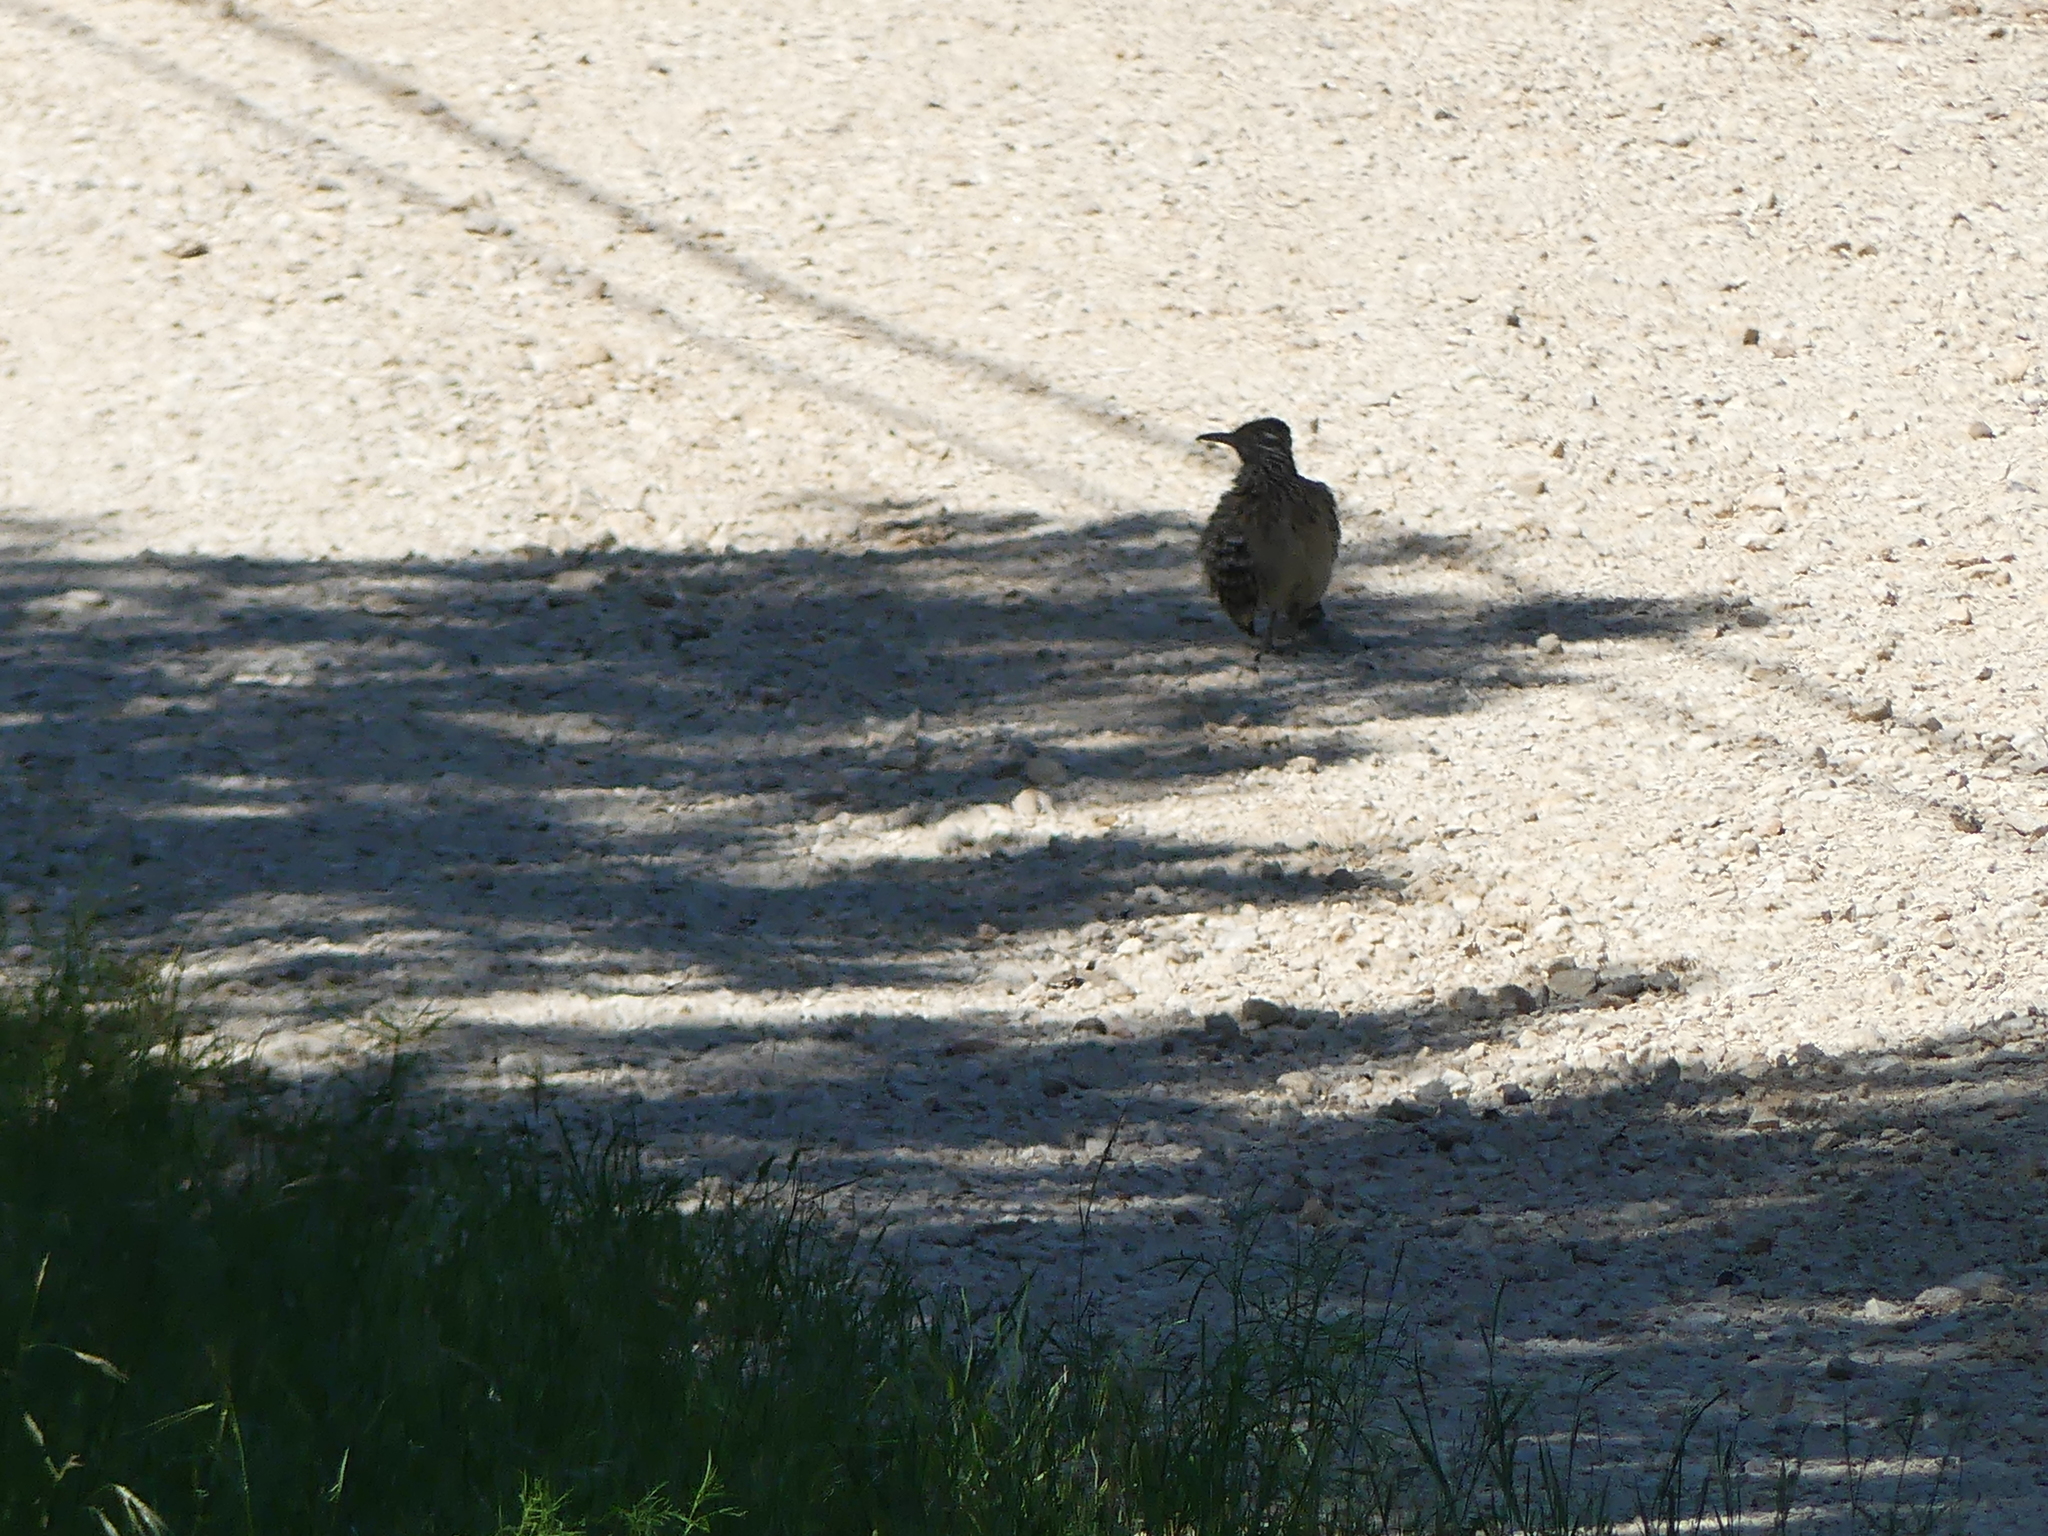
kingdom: Animalia
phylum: Chordata
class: Aves
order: Cuculiformes
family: Cuculidae
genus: Geococcyx
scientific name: Geococcyx californianus
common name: Greater roadrunner
